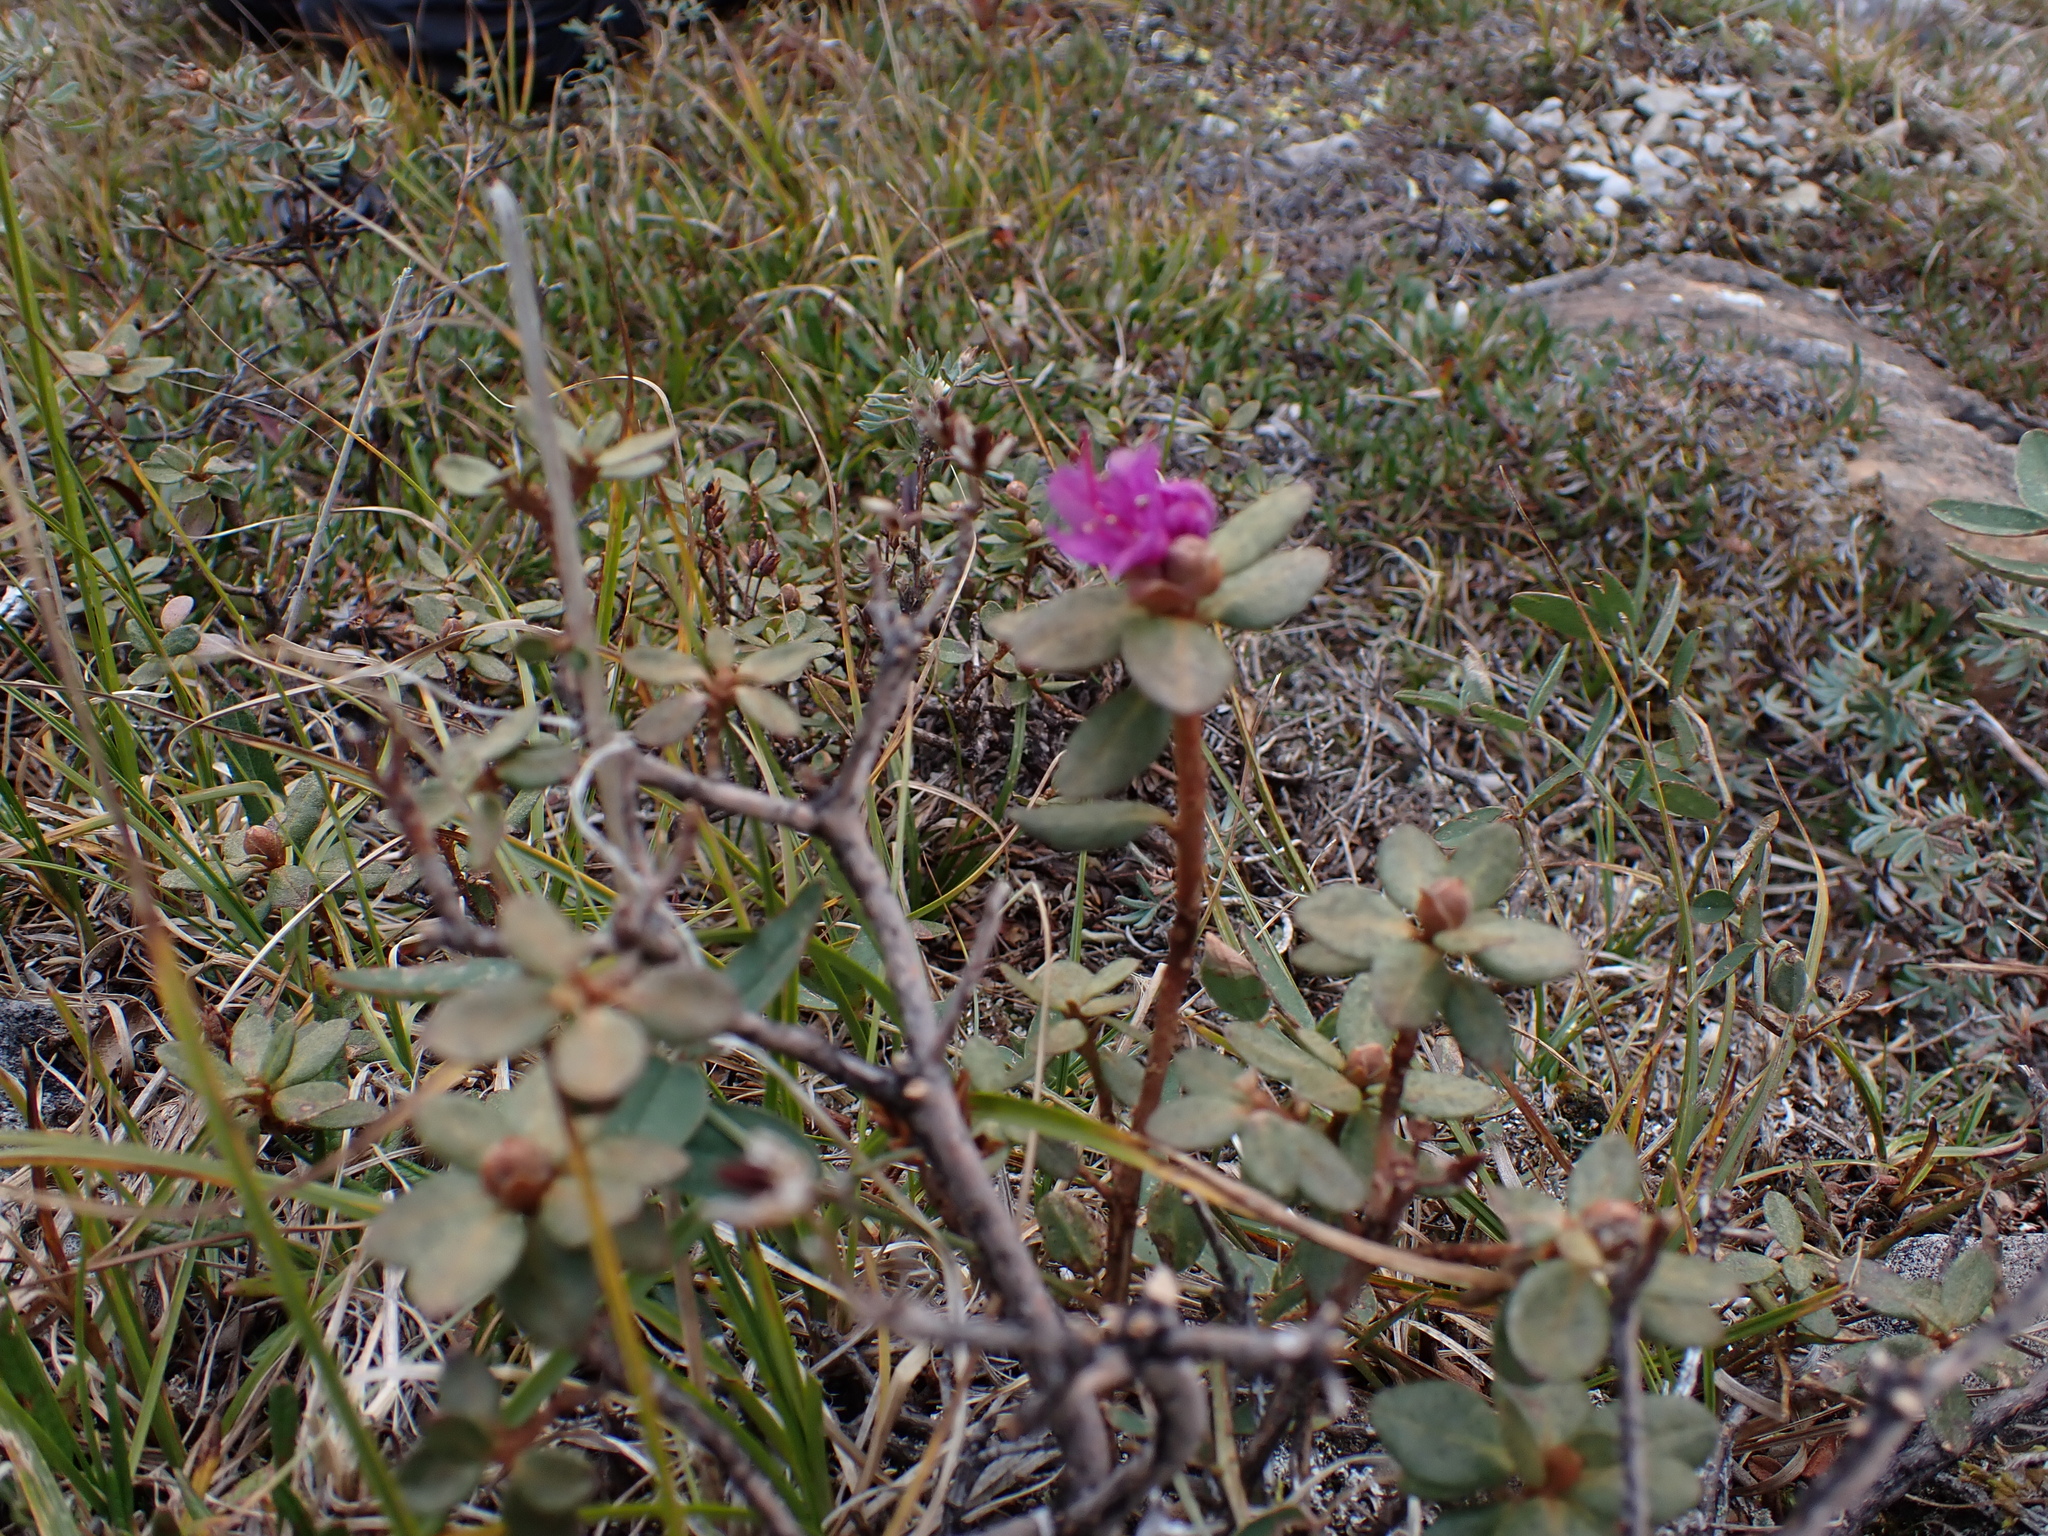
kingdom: Plantae
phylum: Tracheophyta
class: Magnoliopsida
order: Ericales
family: Ericaceae
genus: Rhododendron
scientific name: Rhododendron lapponicum
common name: Lapland rhododendron
